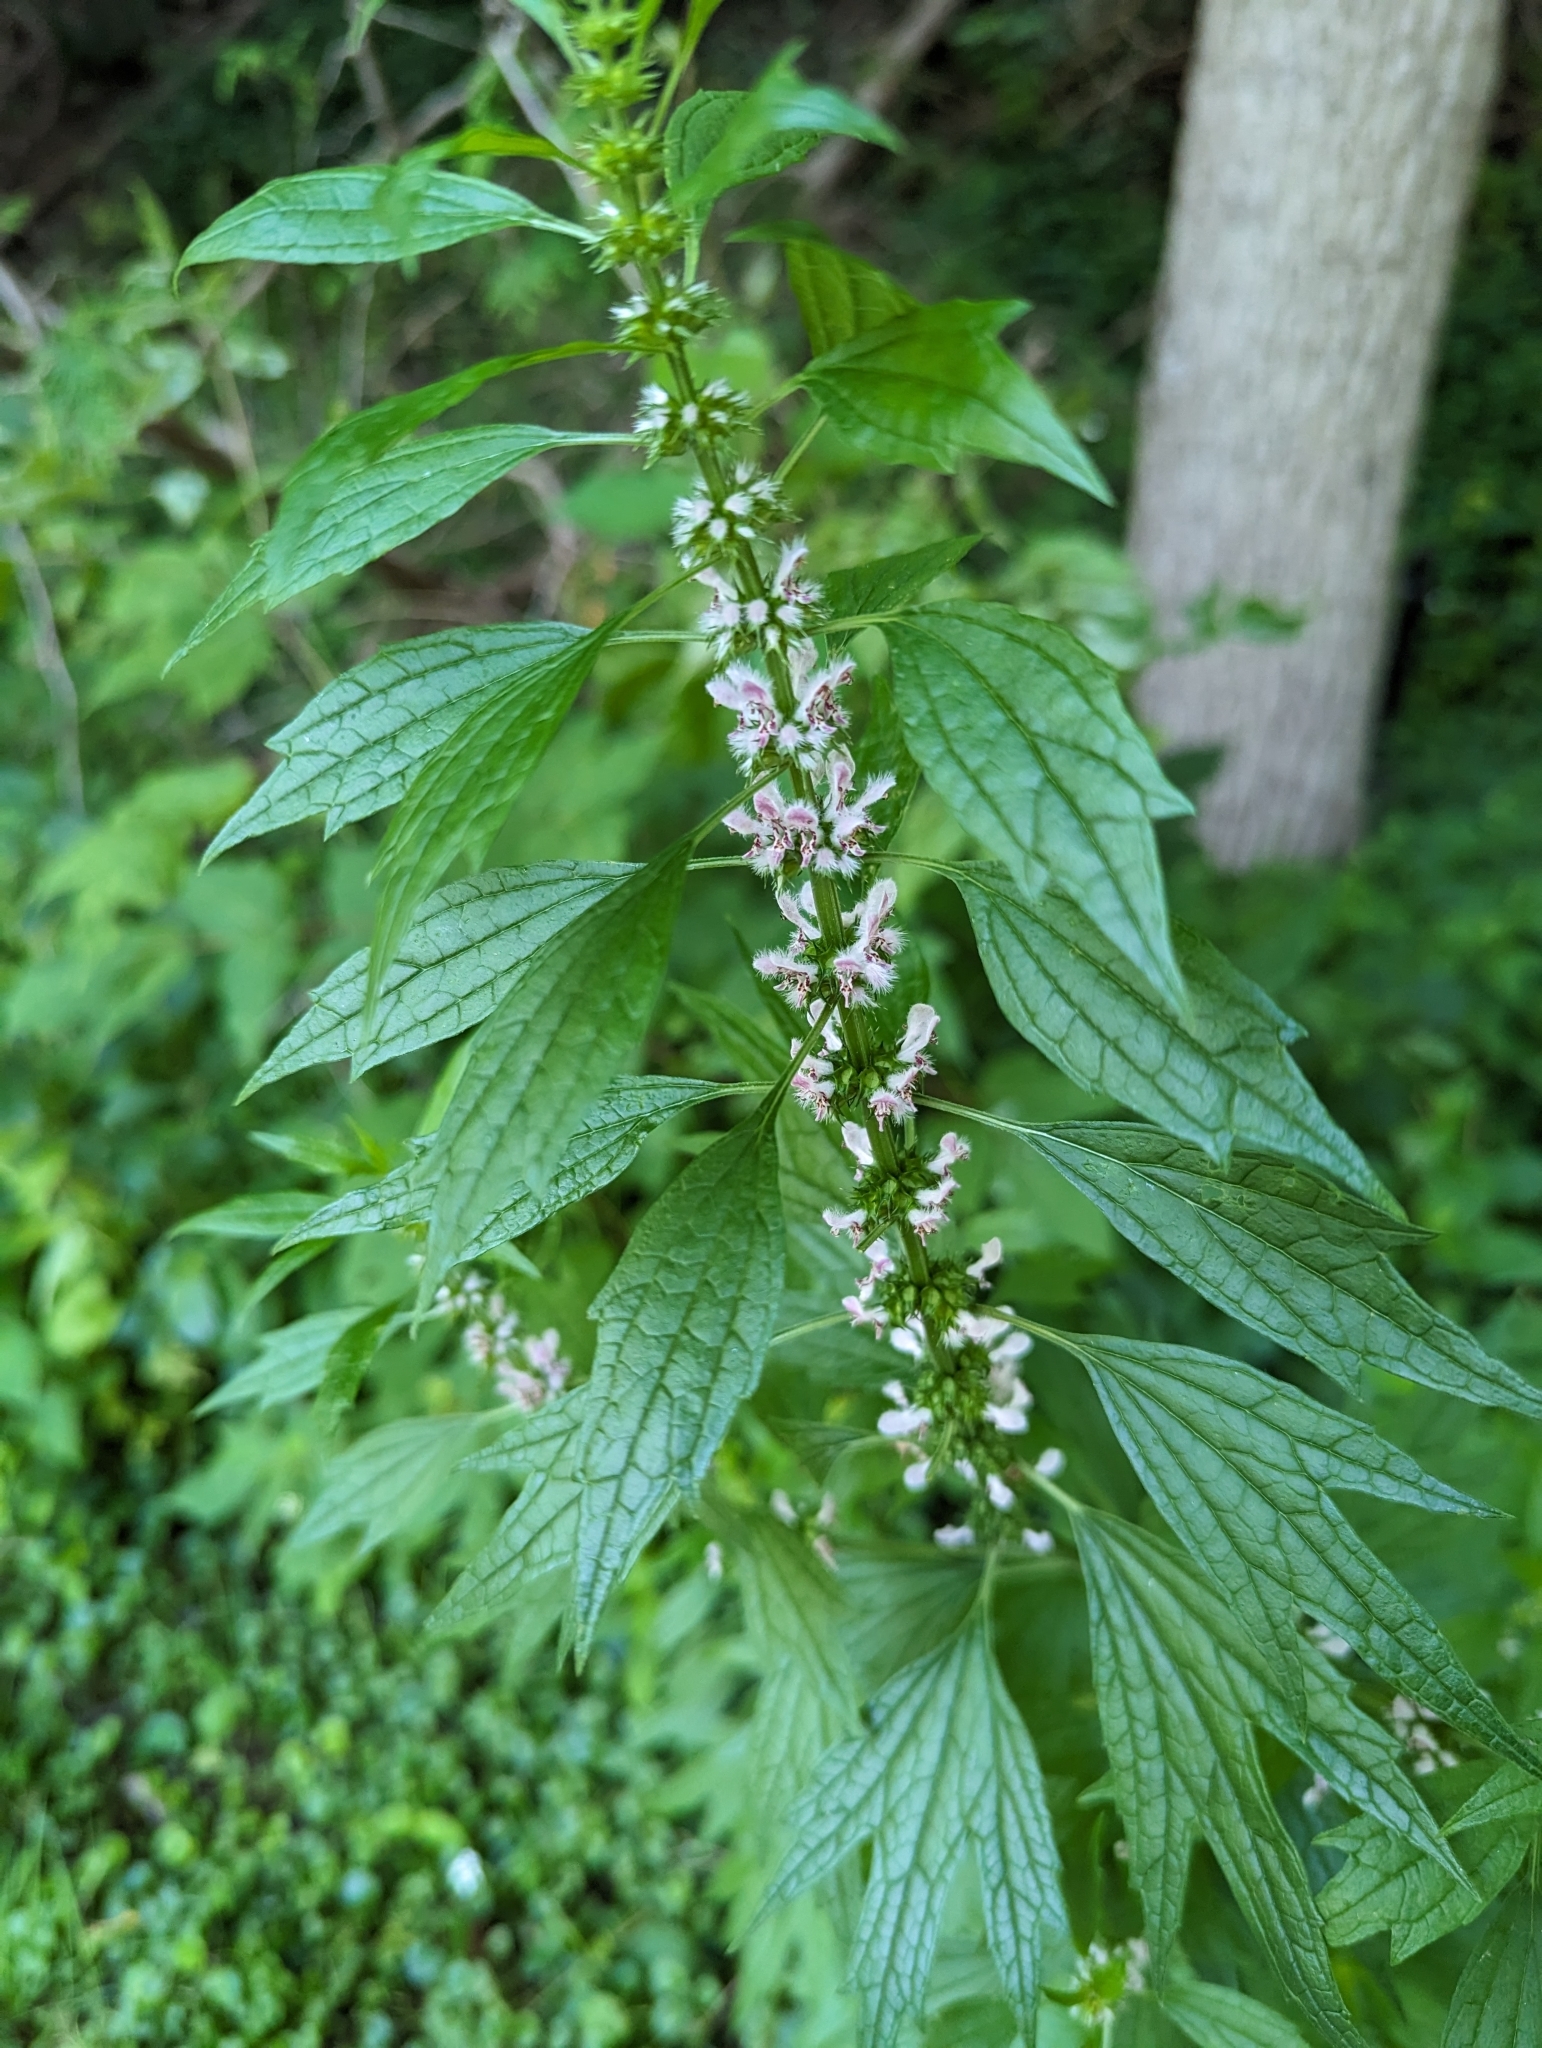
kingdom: Plantae
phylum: Tracheophyta
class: Magnoliopsida
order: Lamiales
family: Lamiaceae
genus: Leonurus
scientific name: Leonurus cardiaca
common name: Motherwort
